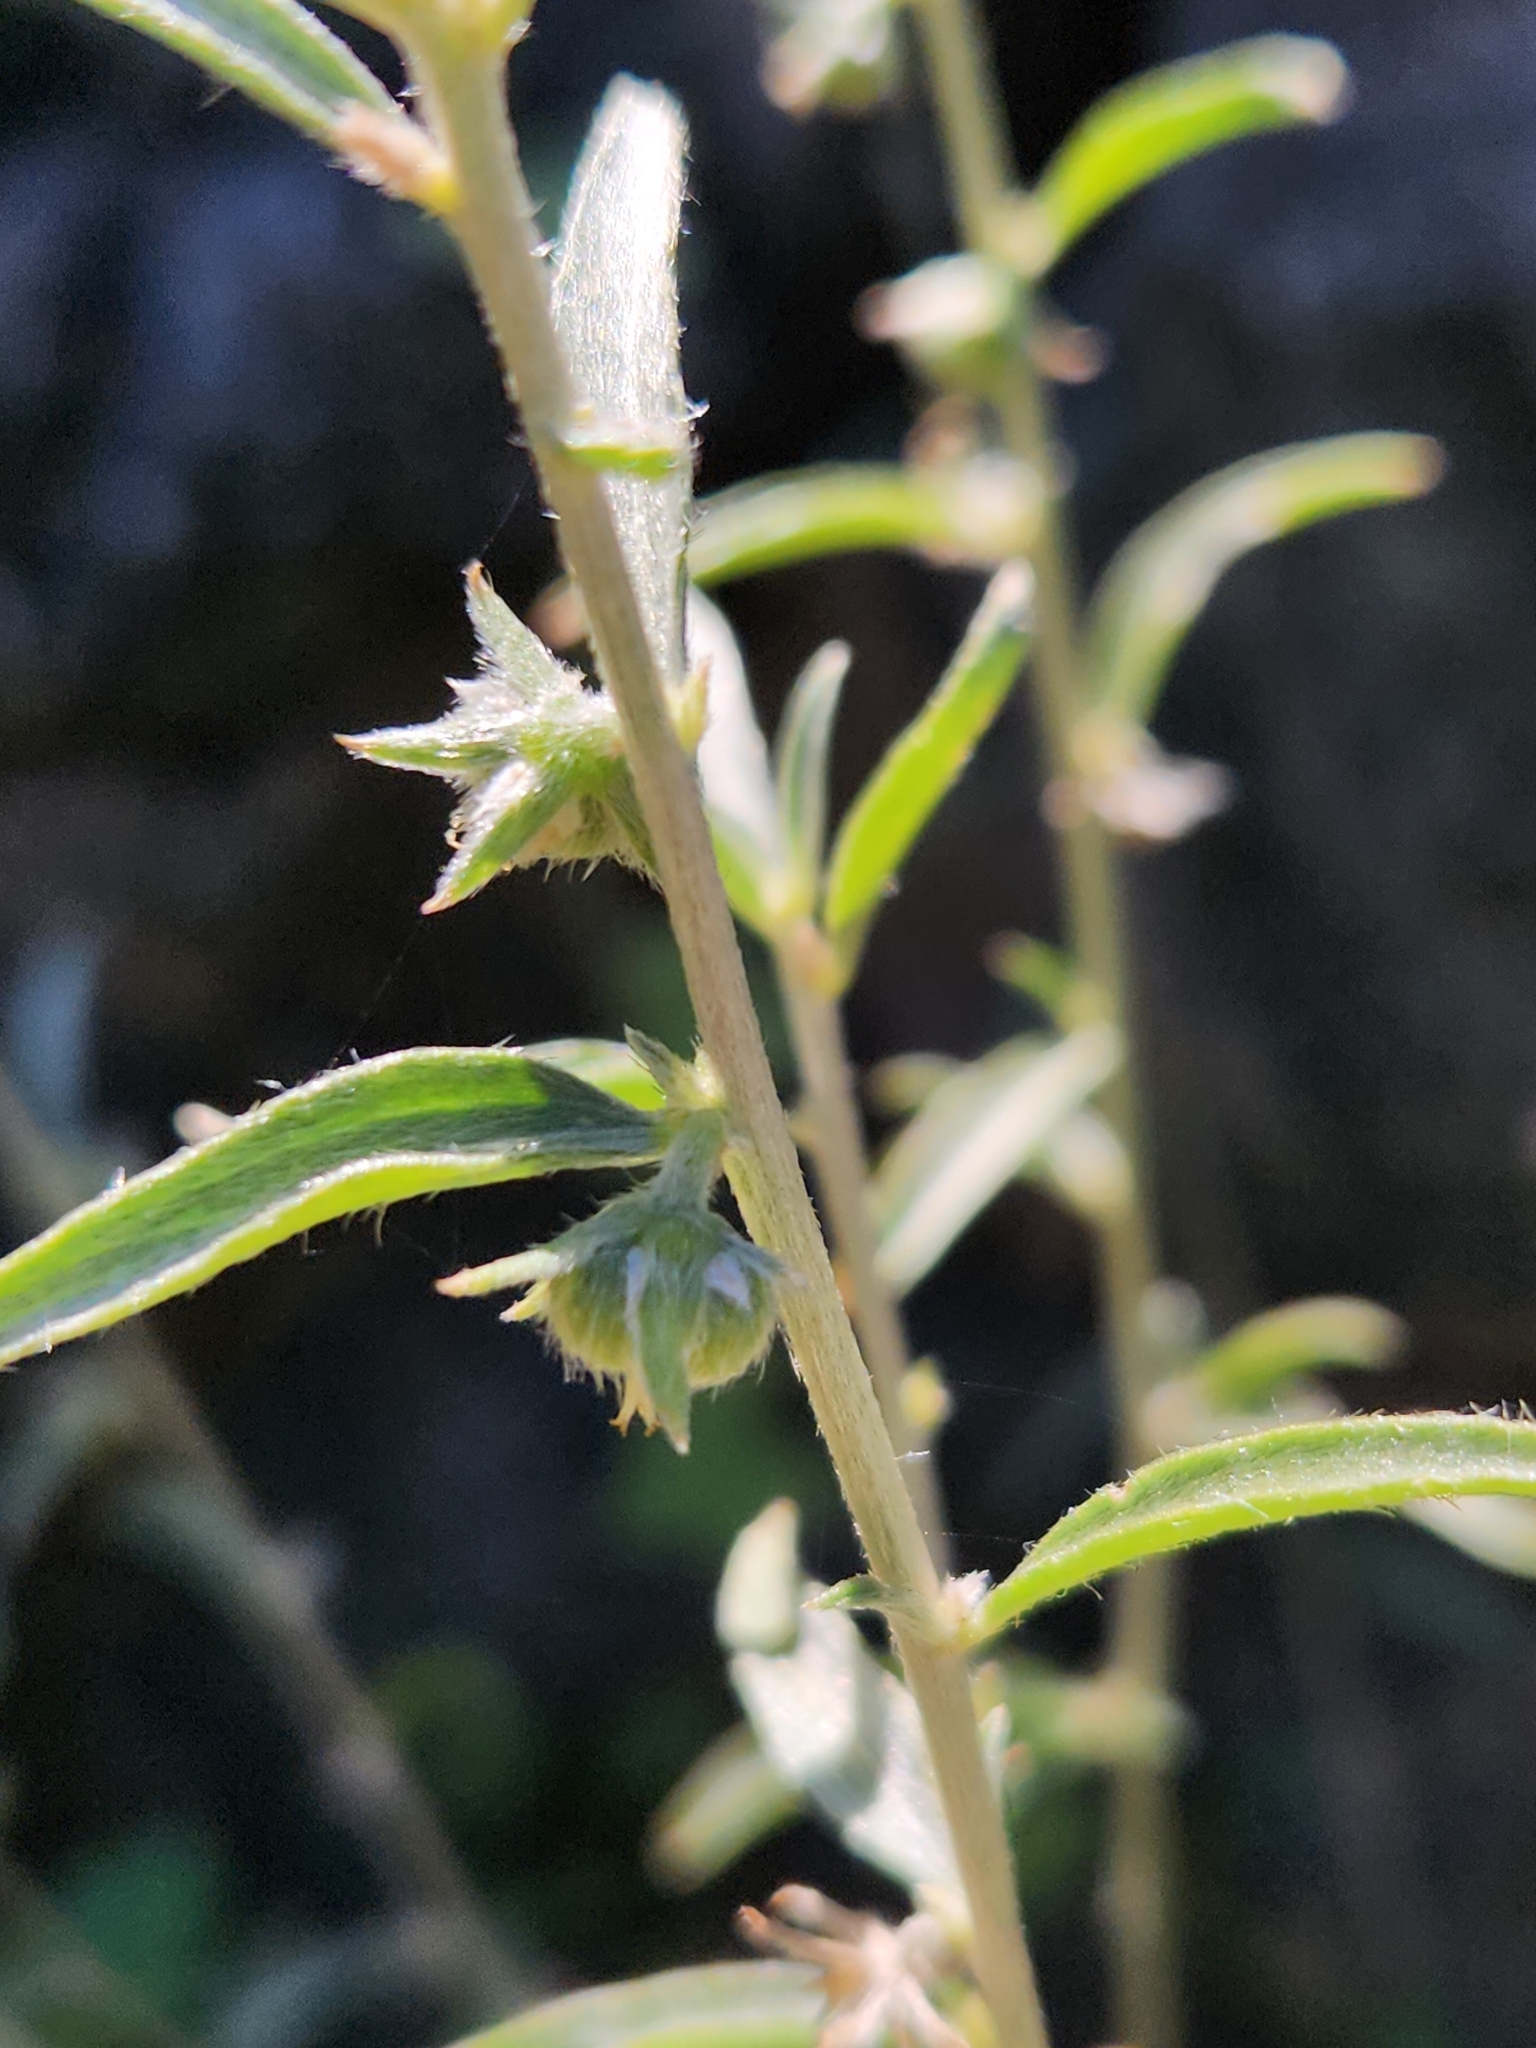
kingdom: Plantae
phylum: Tracheophyta
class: Magnoliopsida
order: Malpighiales
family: Euphorbiaceae
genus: Ditaxis
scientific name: Ditaxis lanceolata
